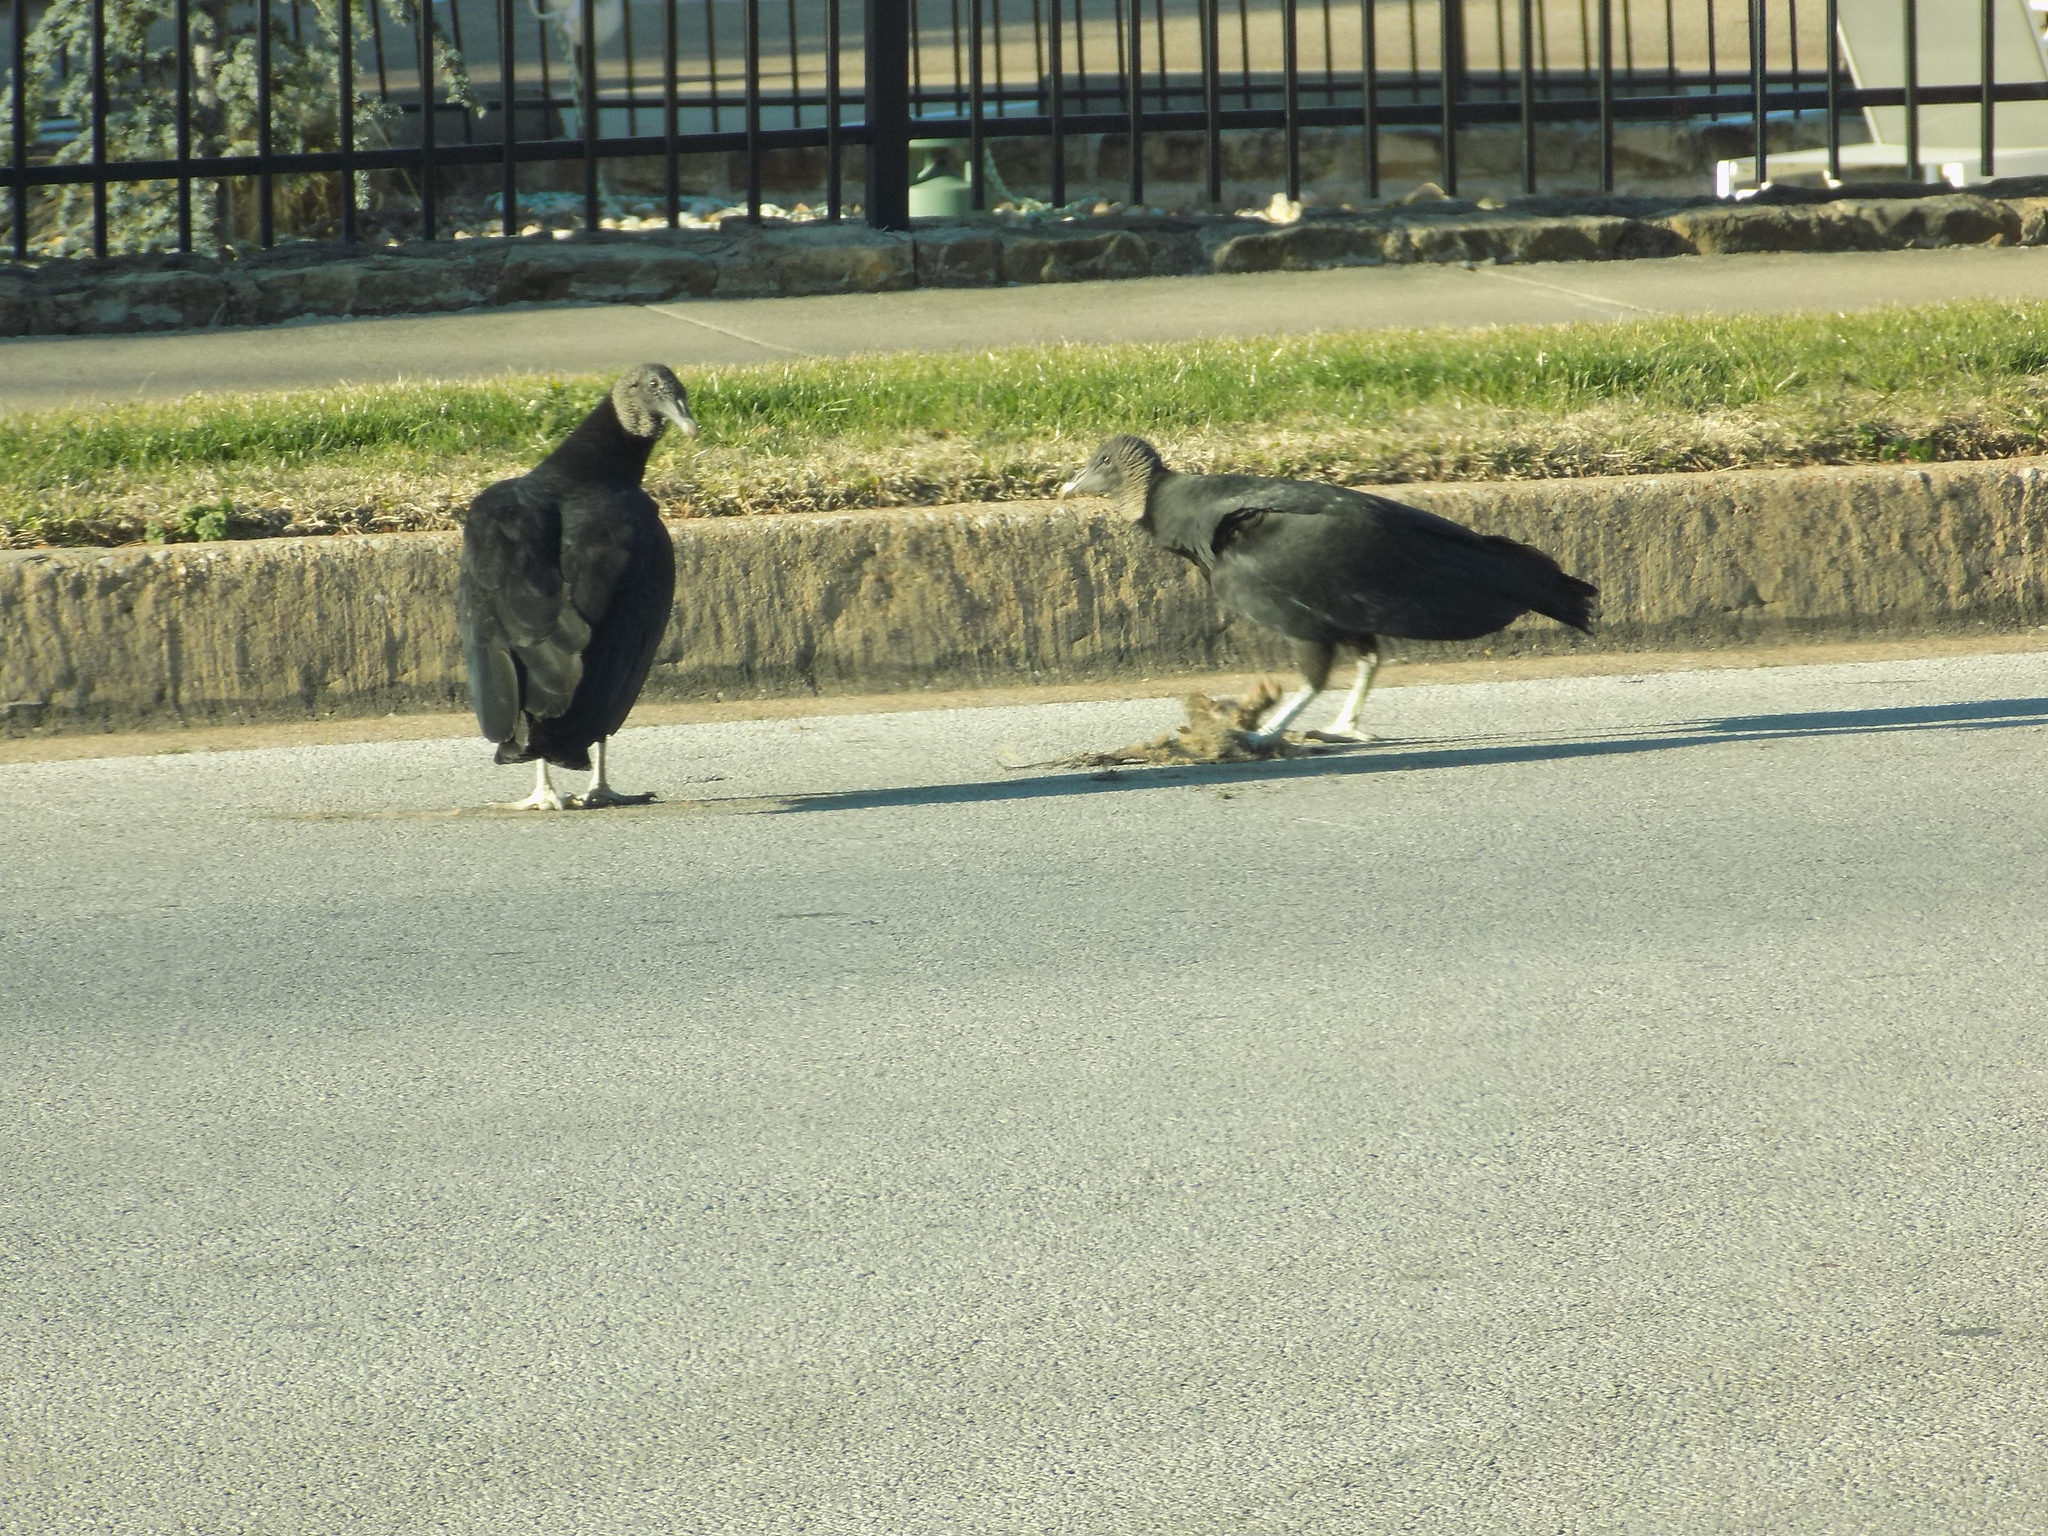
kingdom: Animalia
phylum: Chordata
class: Aves
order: Accipitriformes
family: Cathartidae
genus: Coragyps
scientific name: Coragyps atratus
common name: Black vulture
